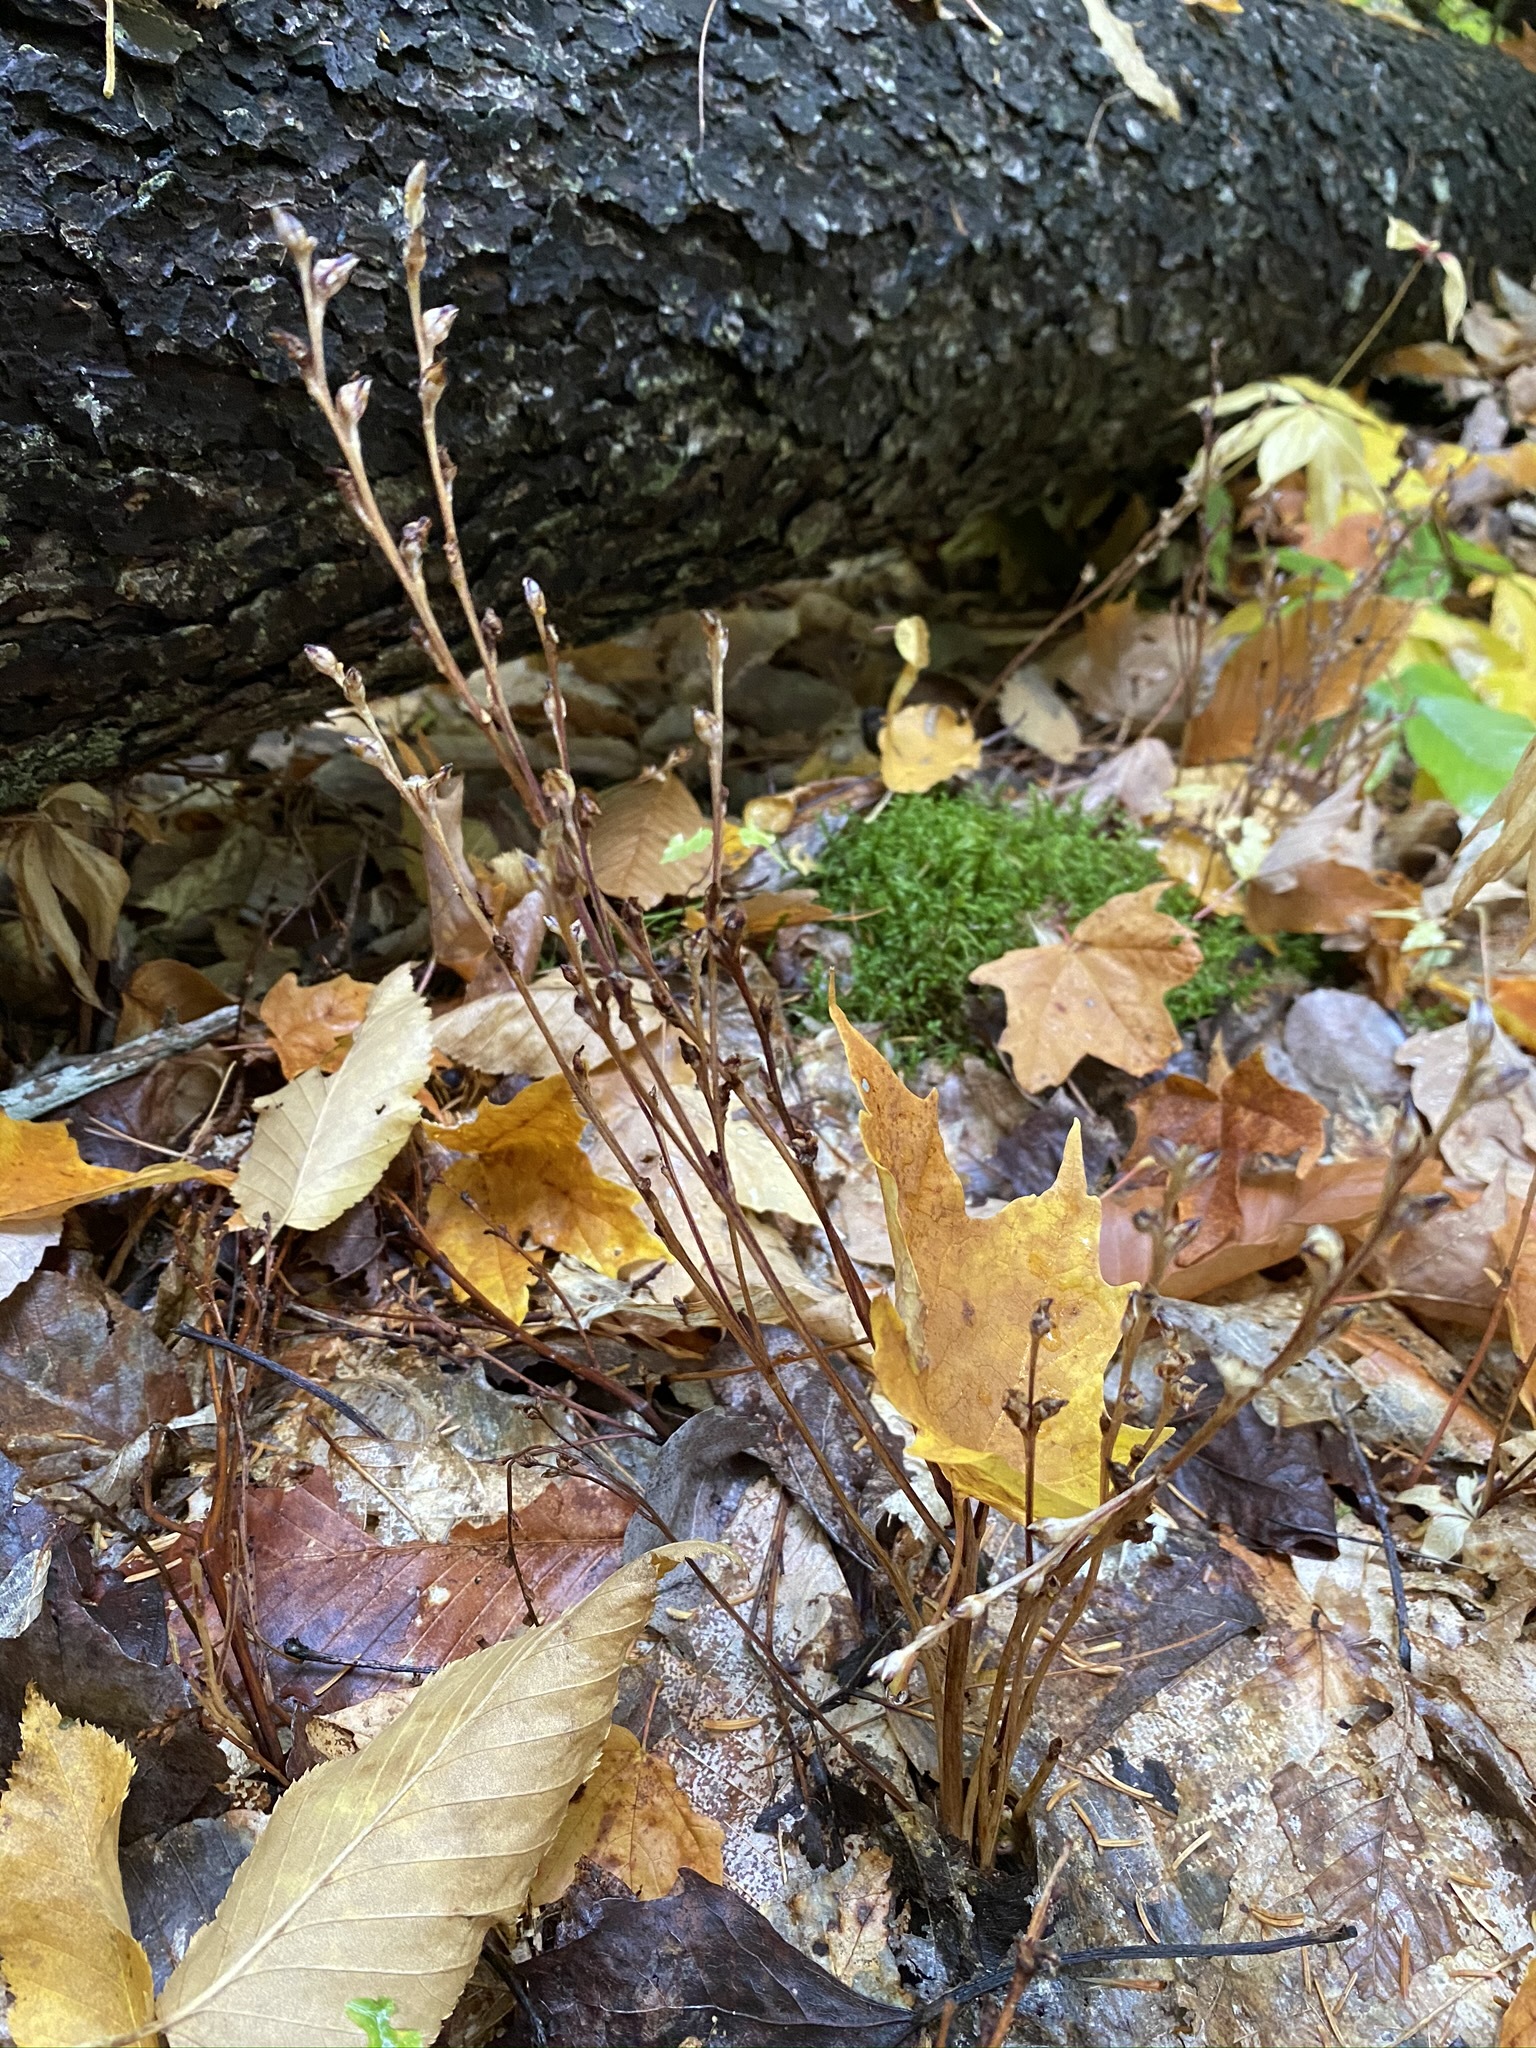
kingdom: Plantae
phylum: Tracheophyta
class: Magnoliopsida
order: Lamiales
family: Orobanchaceae
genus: Epifagus
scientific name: Epifagus virginiana
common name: Beechdrops
